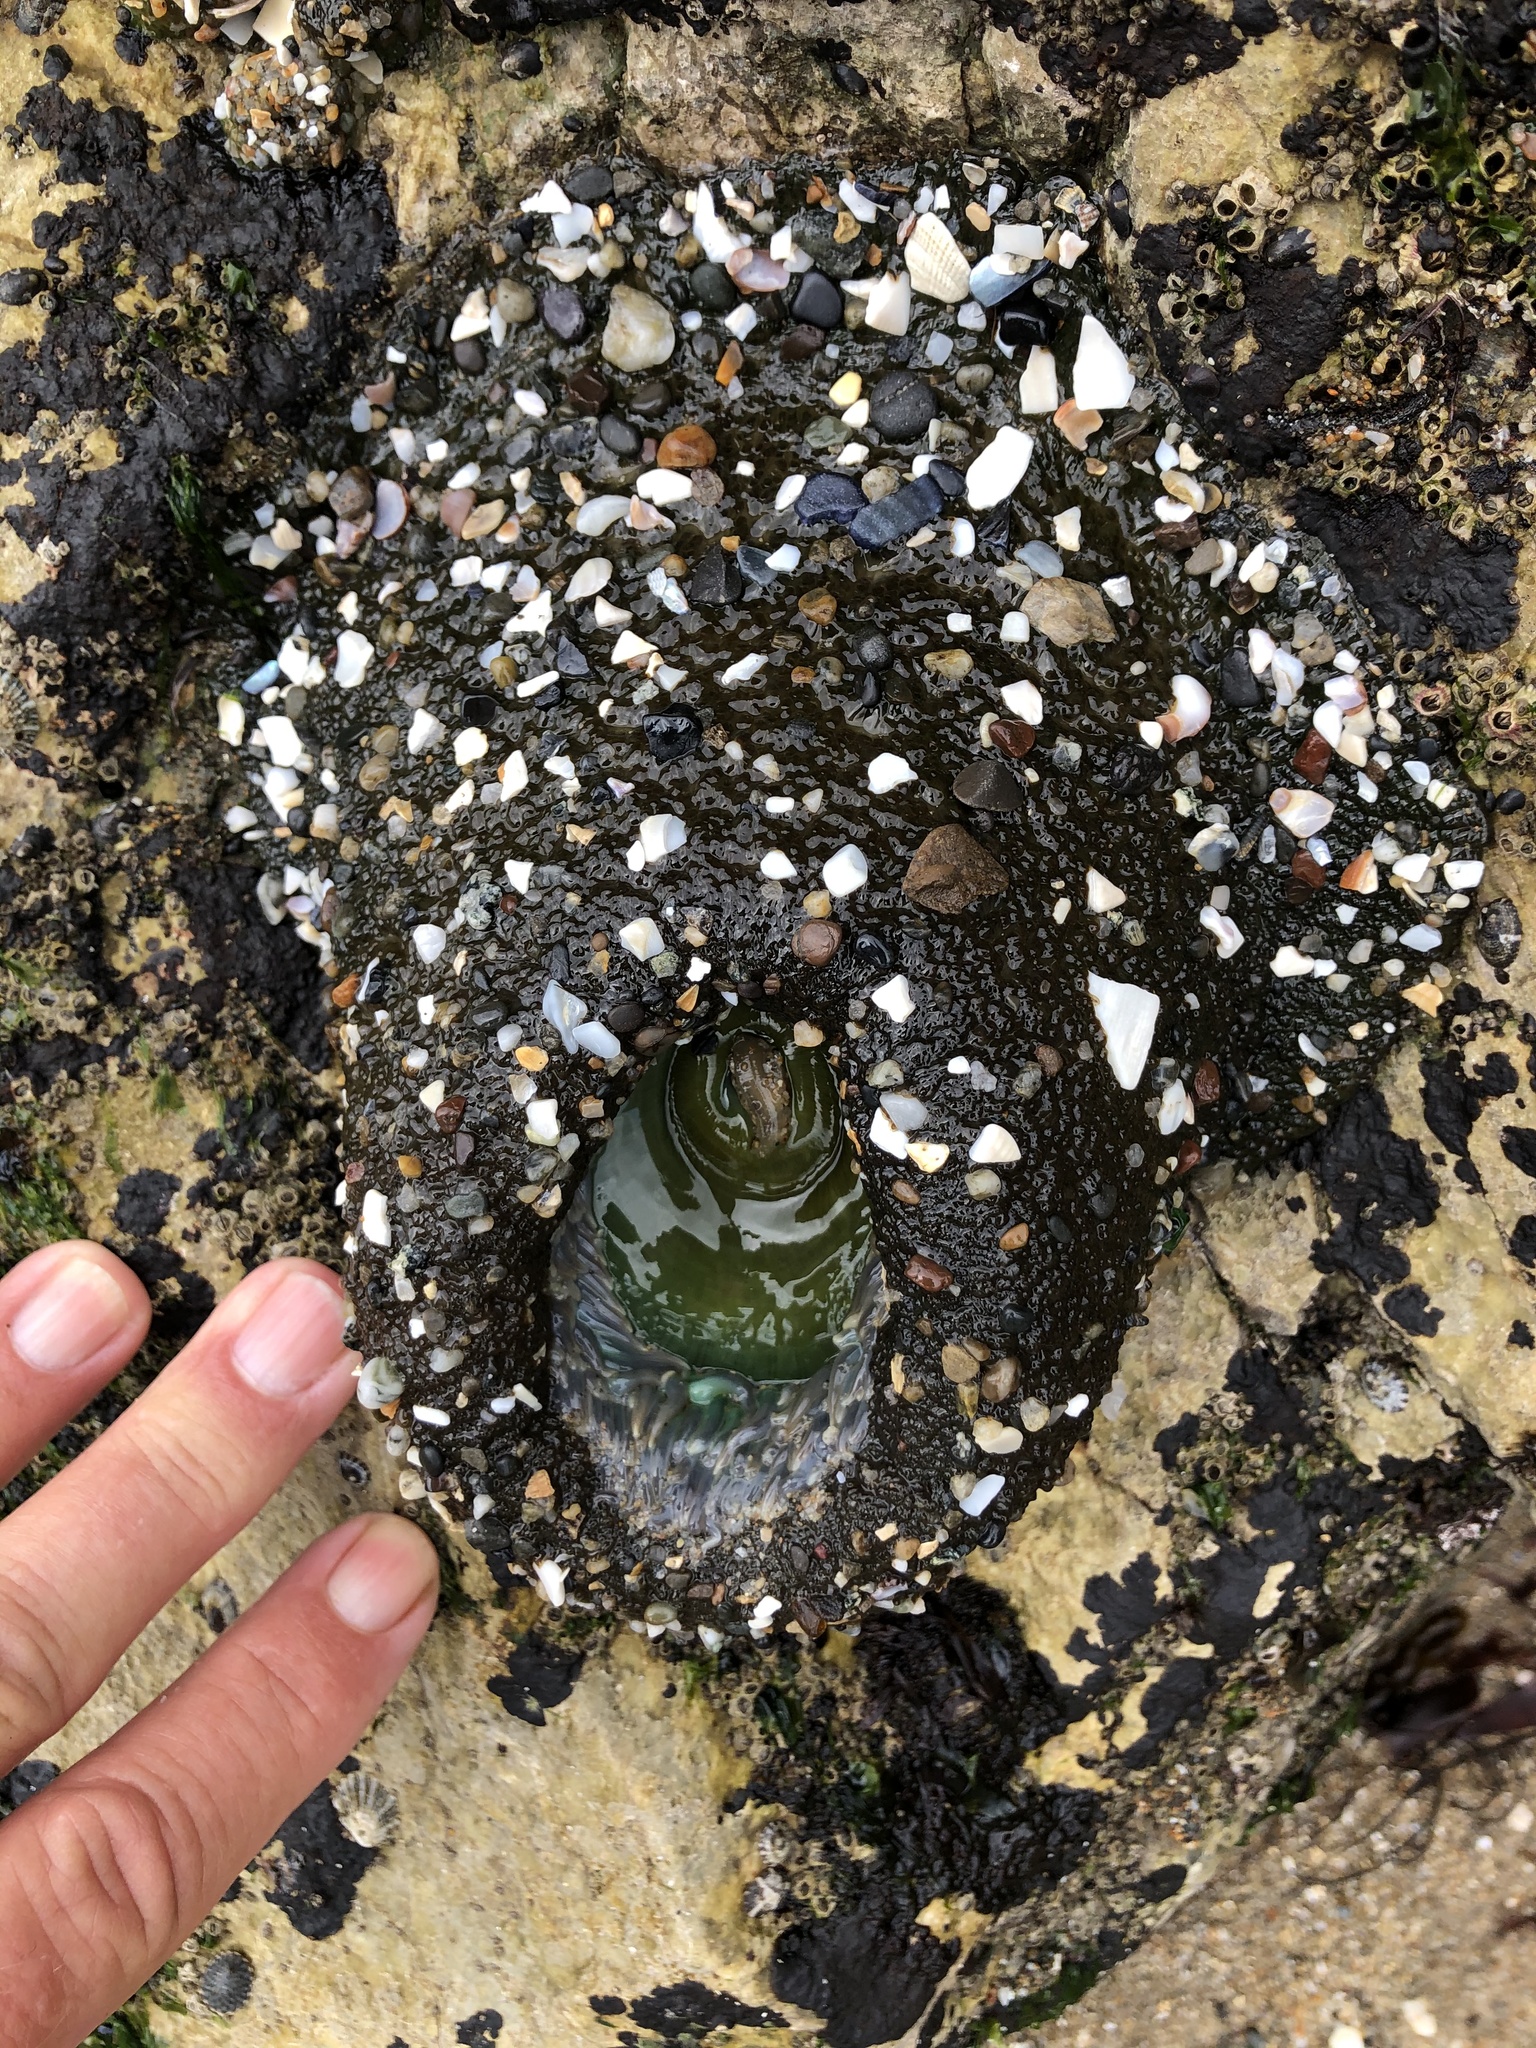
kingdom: Animalia
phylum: Cnidaria
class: Anthozoa
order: Actiniaria
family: Actiniidae
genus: Anthopleura
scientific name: Anthopleura xanthogrammica
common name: Giant green anemone
